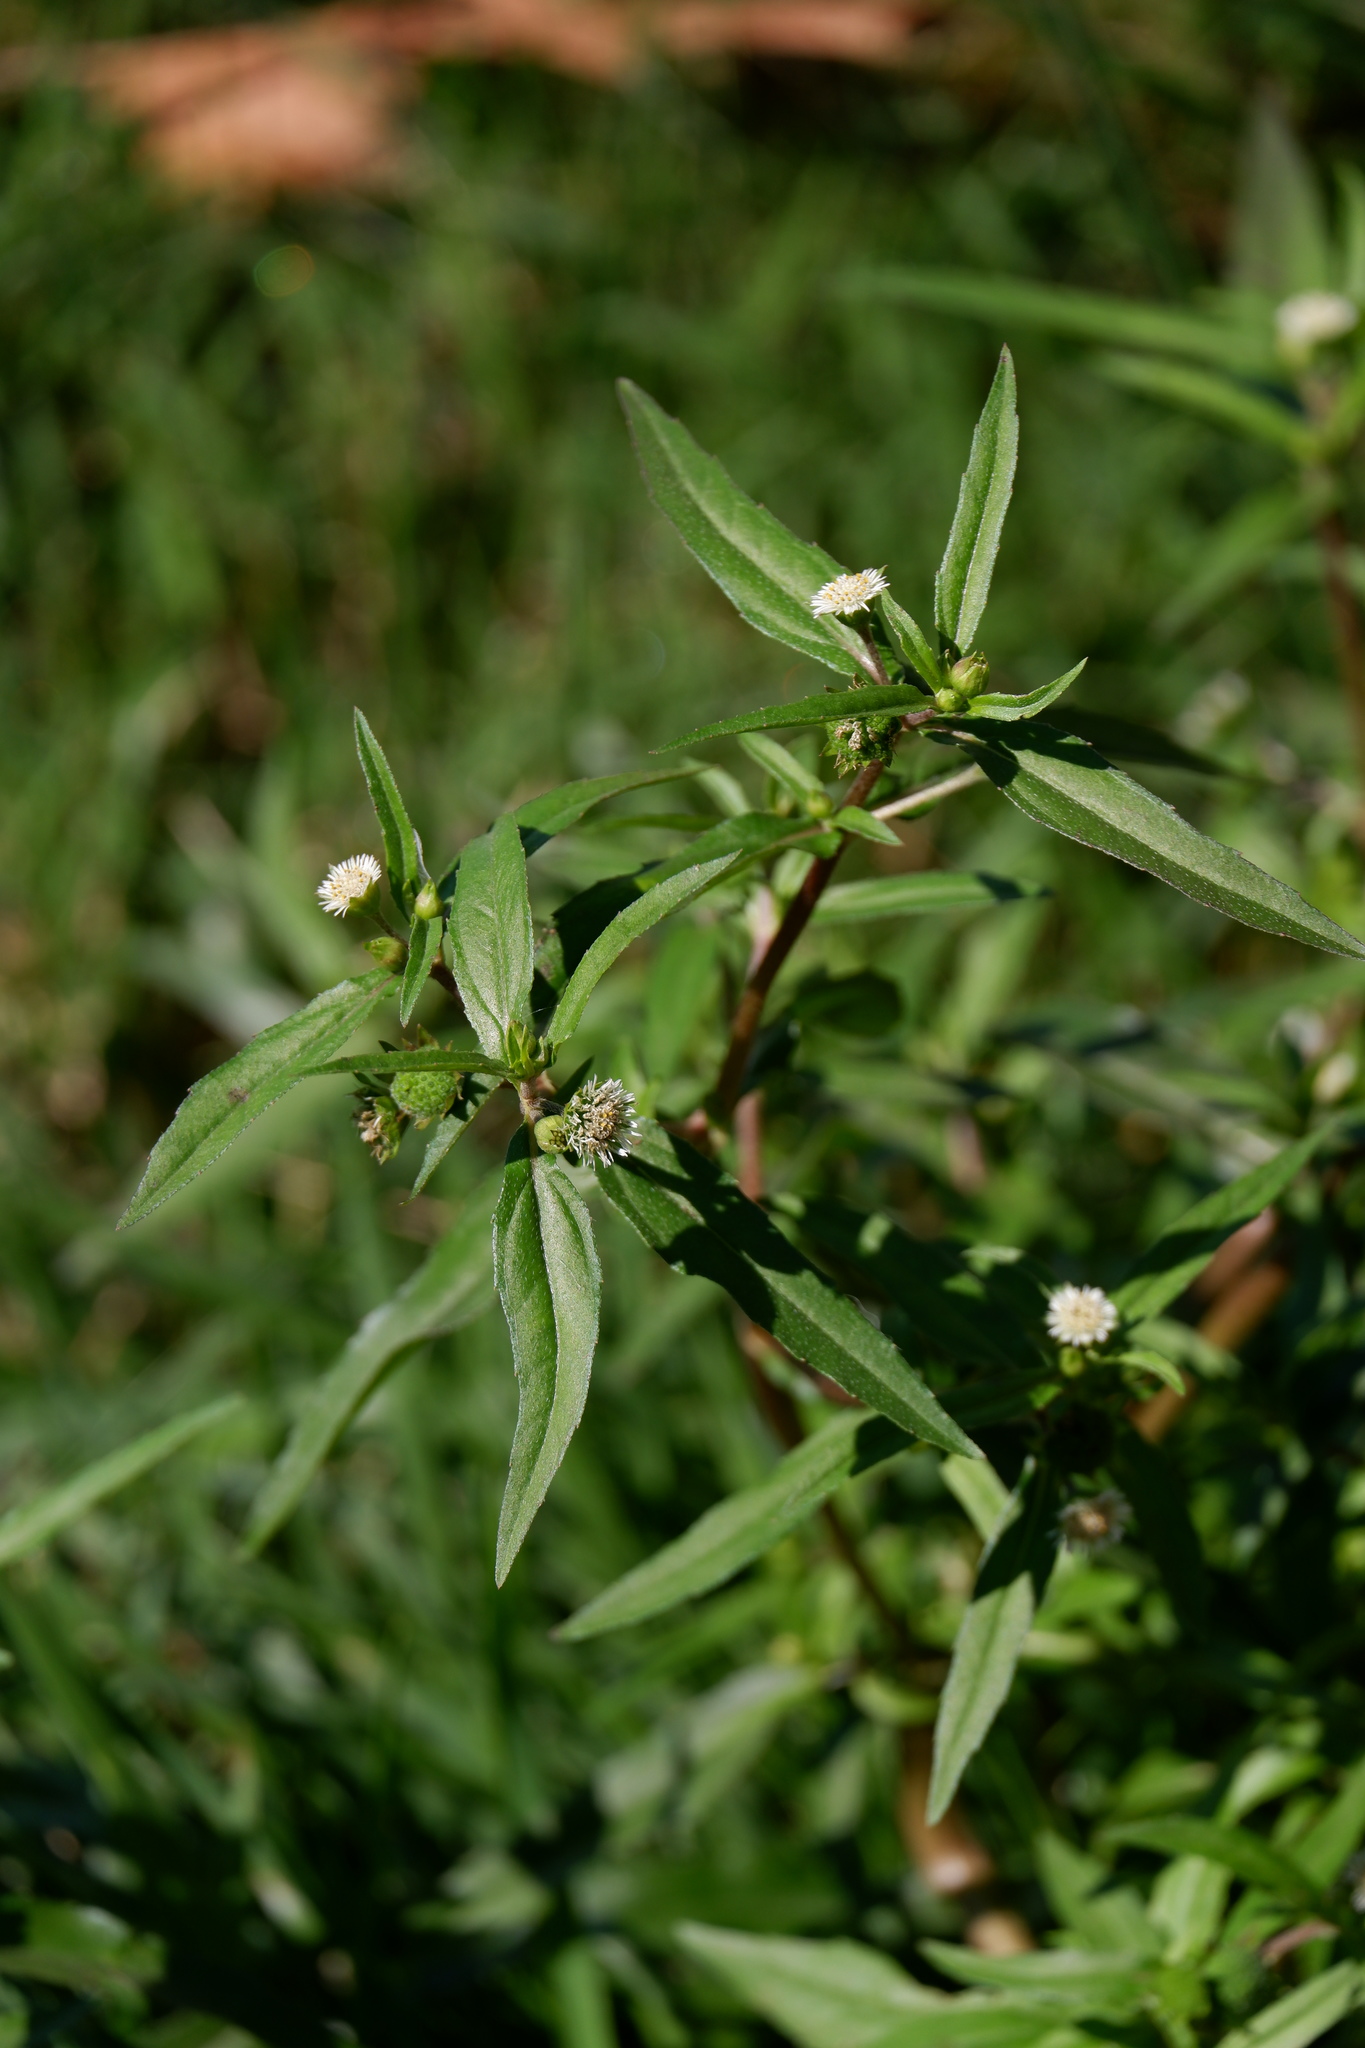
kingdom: Plantae
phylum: Tracheophyta
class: Magnoliopsida
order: Asterales
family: Asteraceae
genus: Eclipta
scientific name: Eclipta prostrata
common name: False daisy
